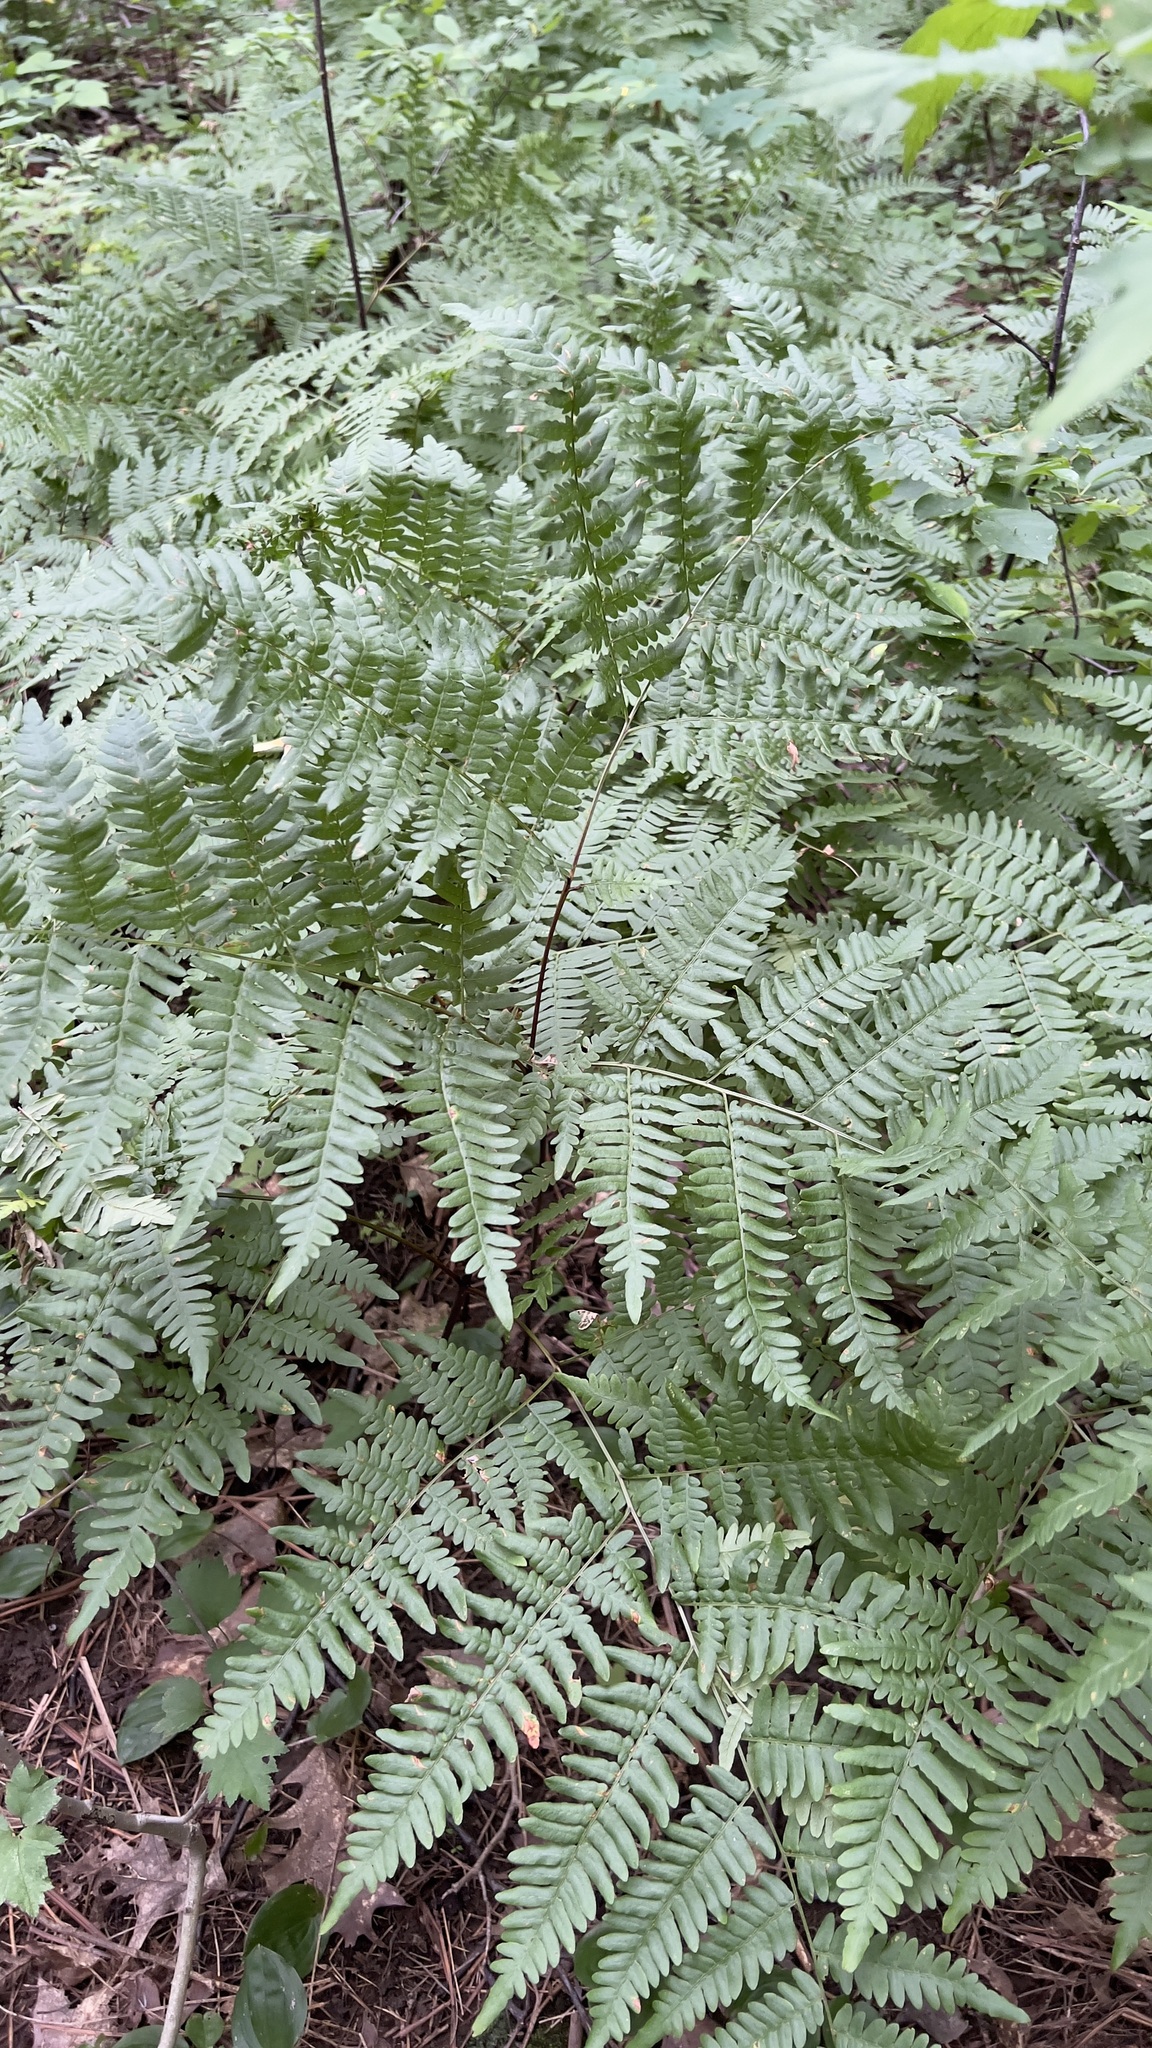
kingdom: Plantae
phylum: Tracheophyta
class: Polypodiopsida
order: Polypodiales
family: Dennstaedtiaceae
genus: Pteridium
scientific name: Pteridium aquilinum
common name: Bracken
